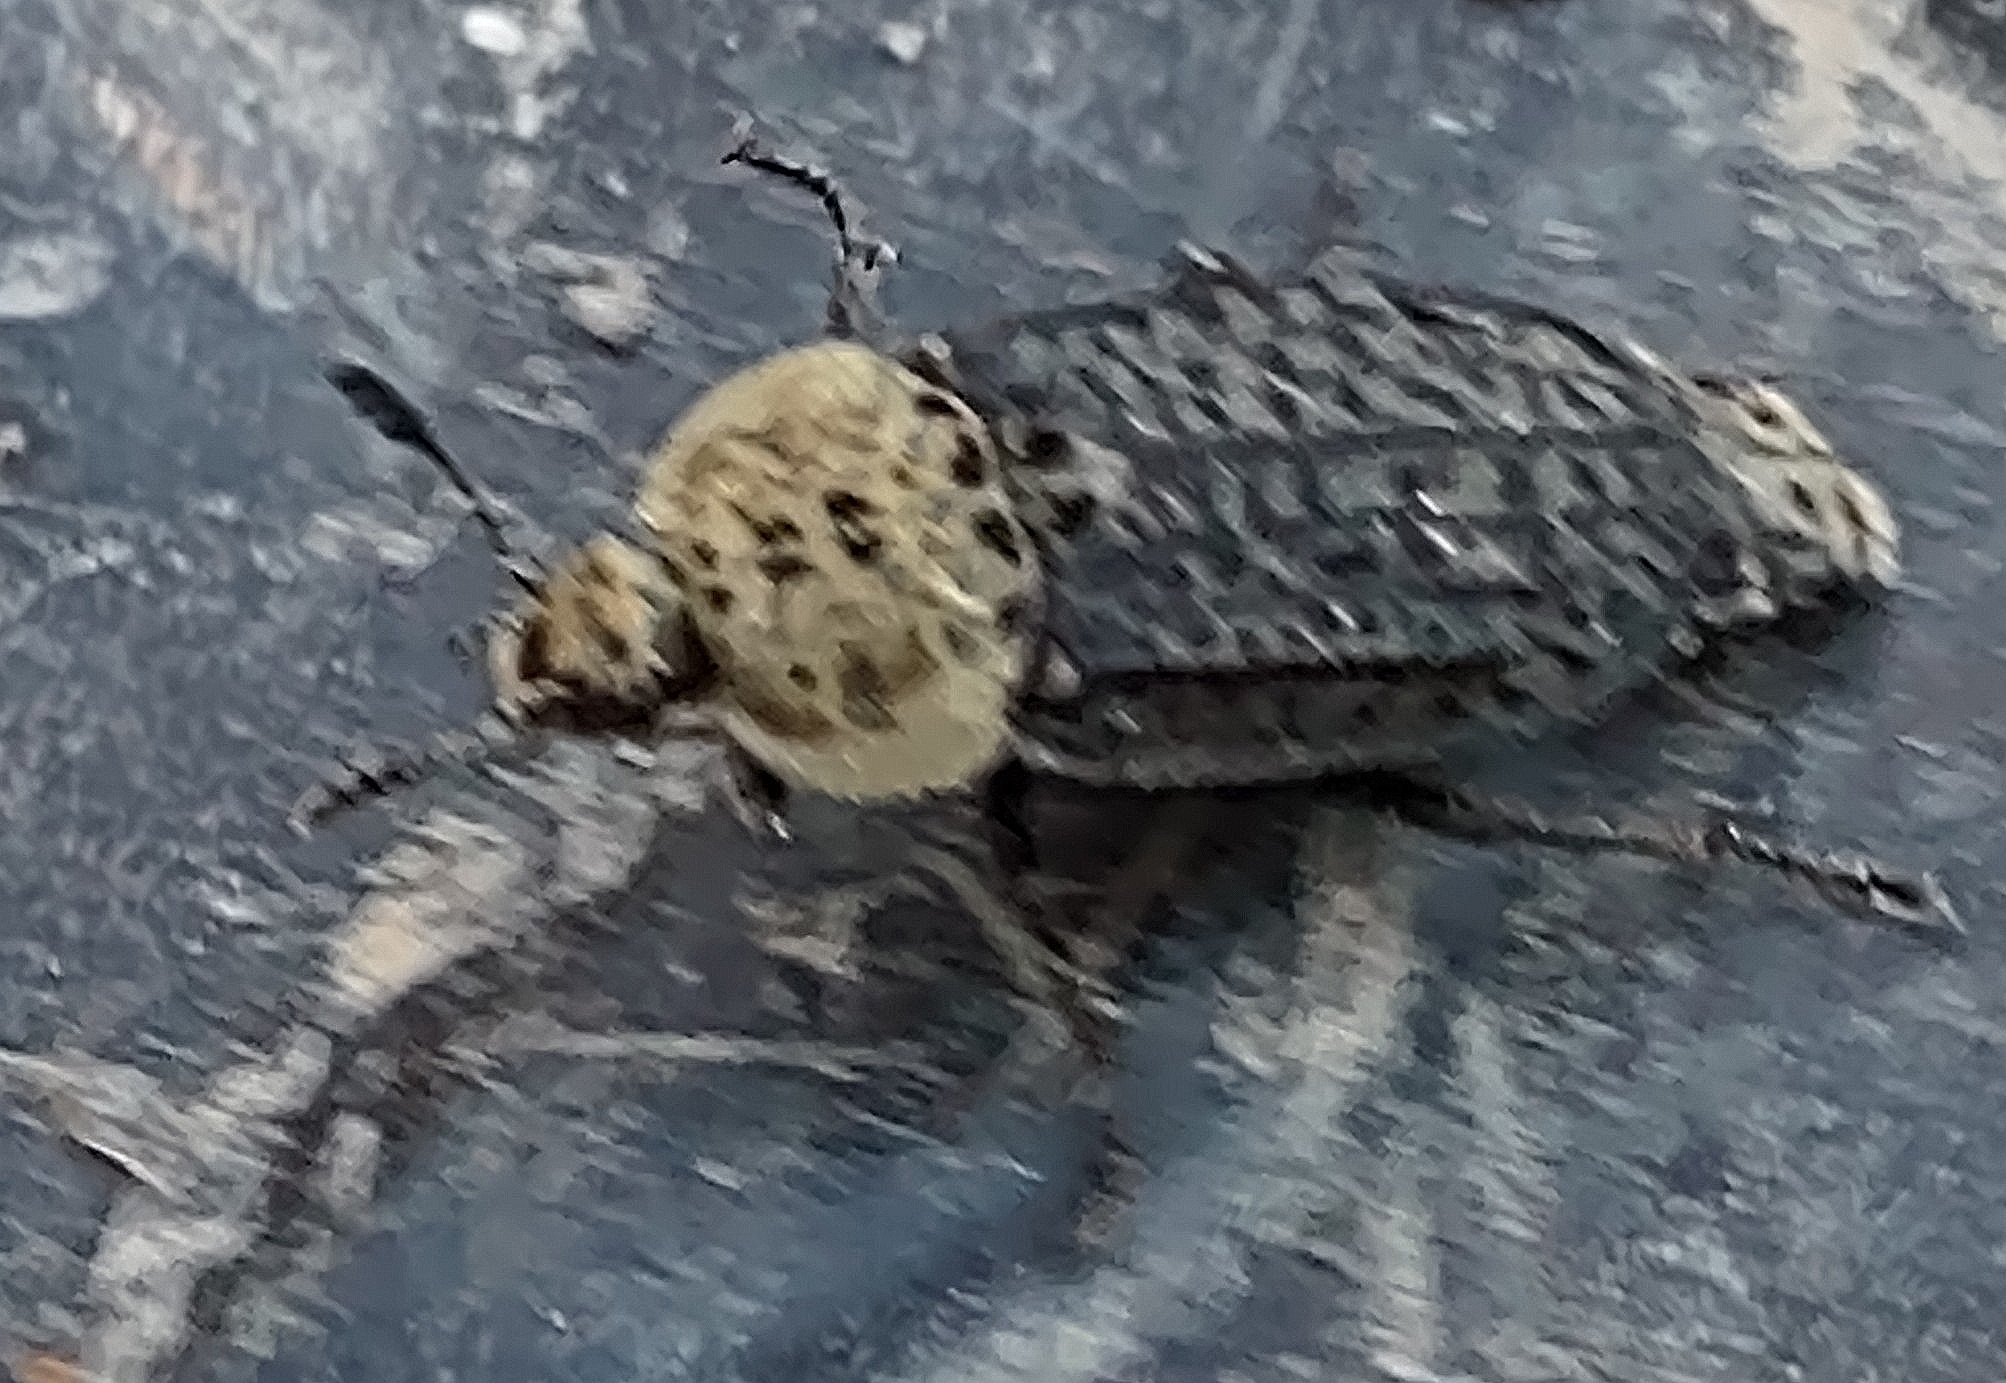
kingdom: Animalia
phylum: Arthropoda
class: Insecta
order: Coleoptera
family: Staphylinidae
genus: Thanatophilus
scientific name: Thanatophilus lapponicus
